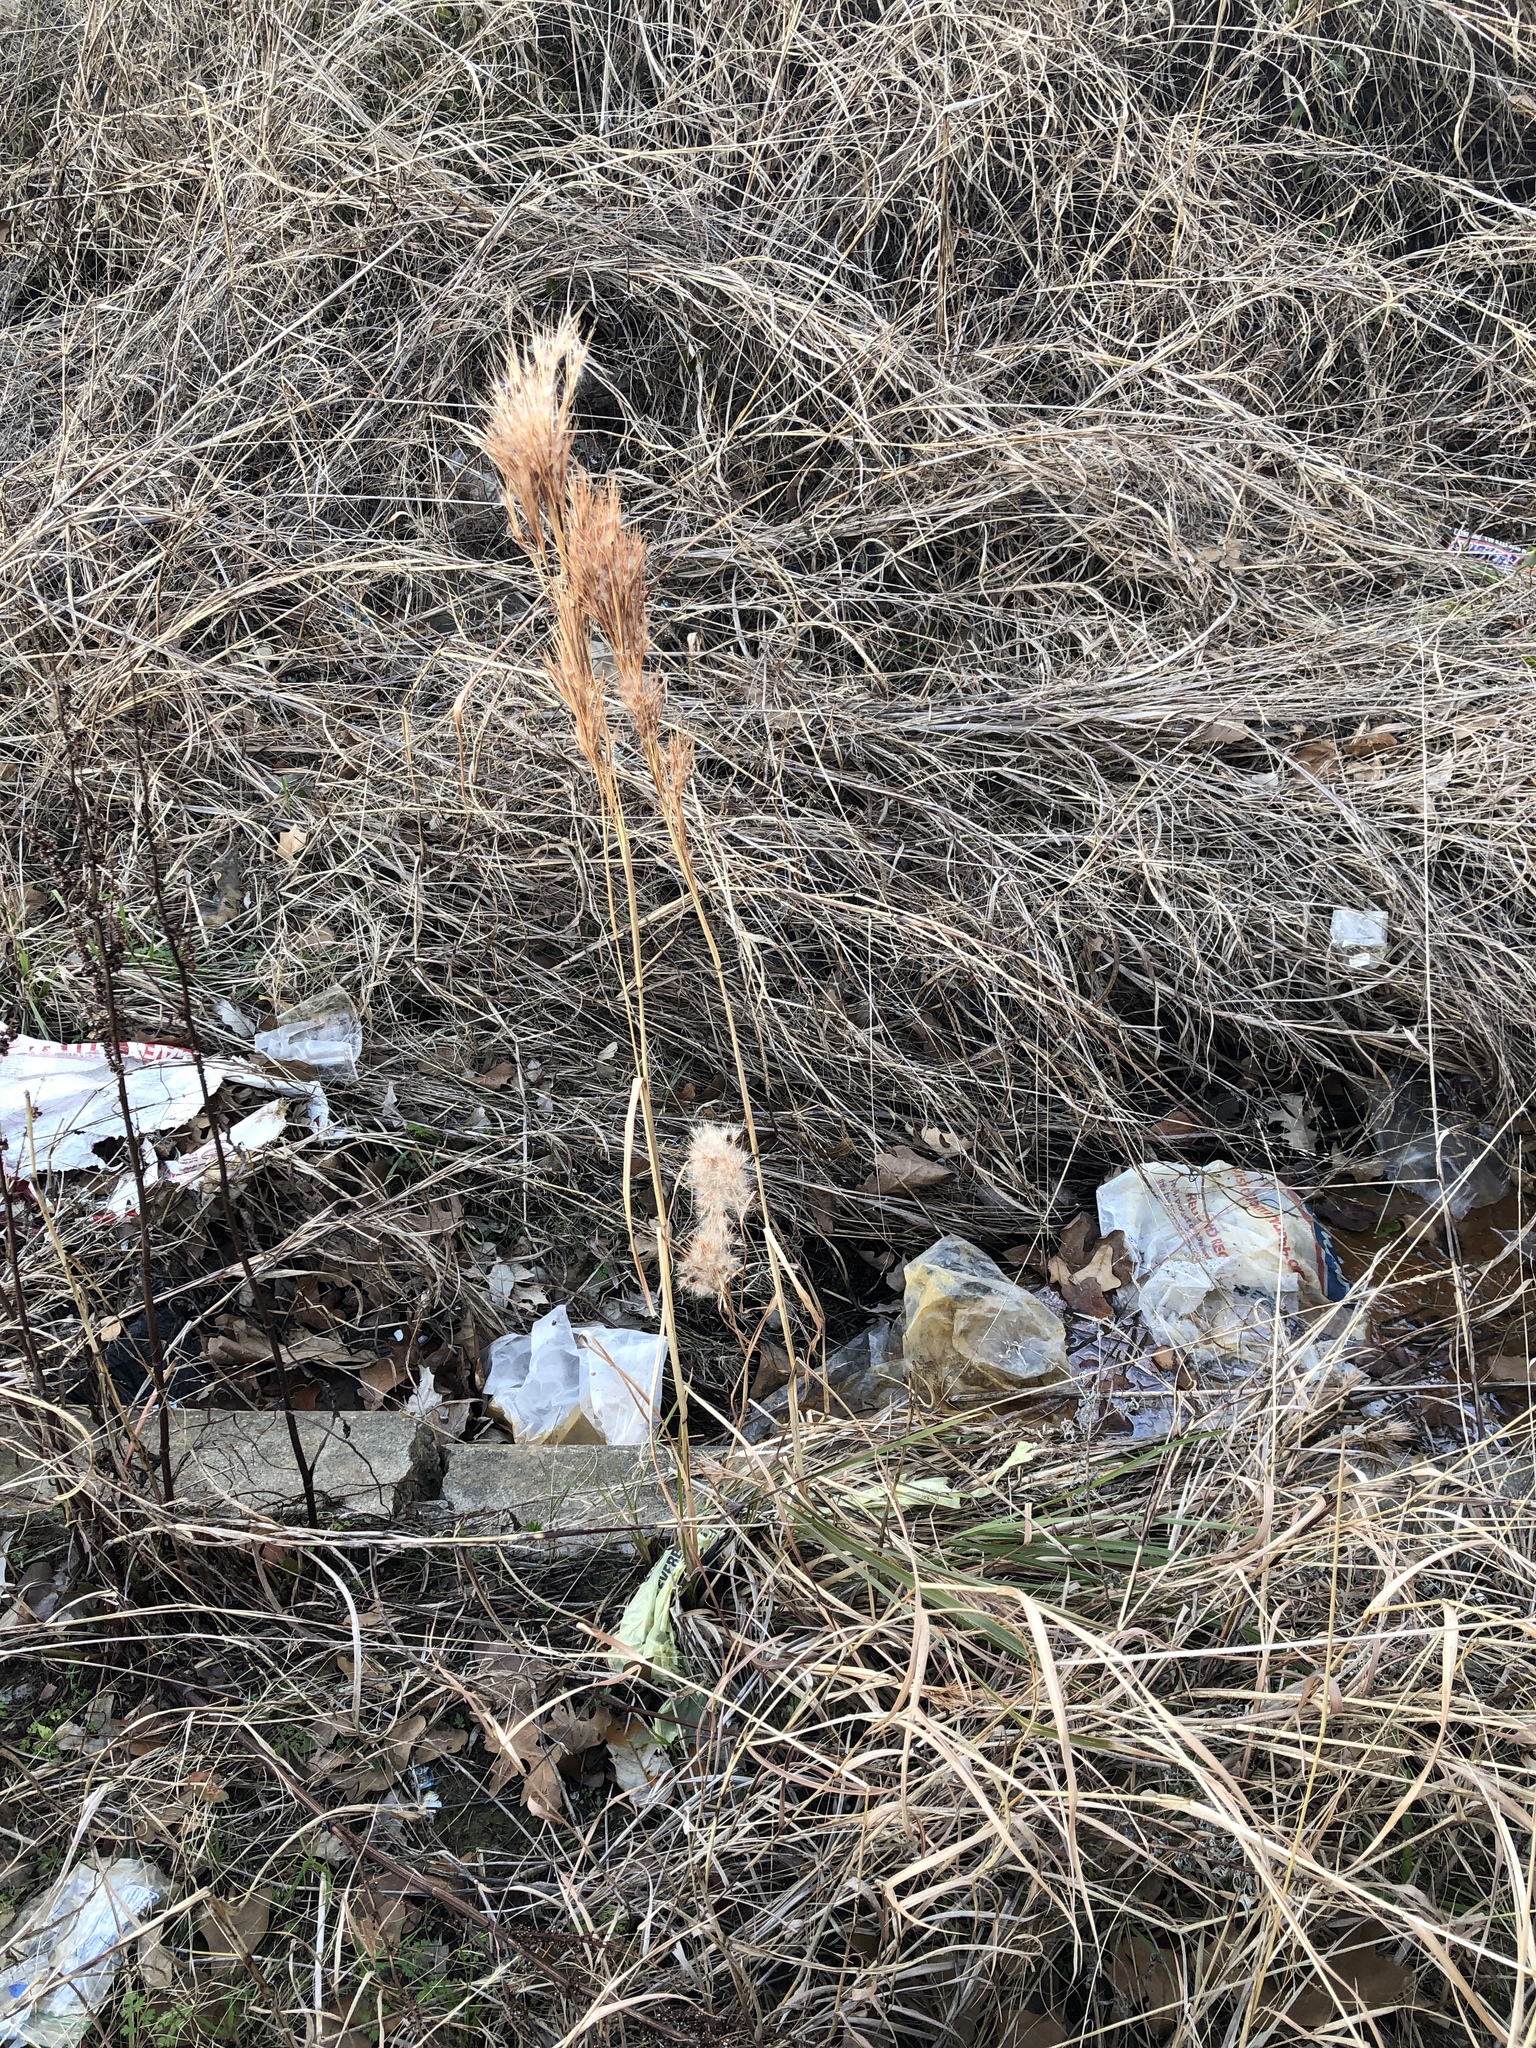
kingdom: Plantae
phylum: Tracheophyta
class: Liliopsida
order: Poales
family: Poaceae
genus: Andropogon
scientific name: Andropogon tenuispatheus
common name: Bushy bluestem
